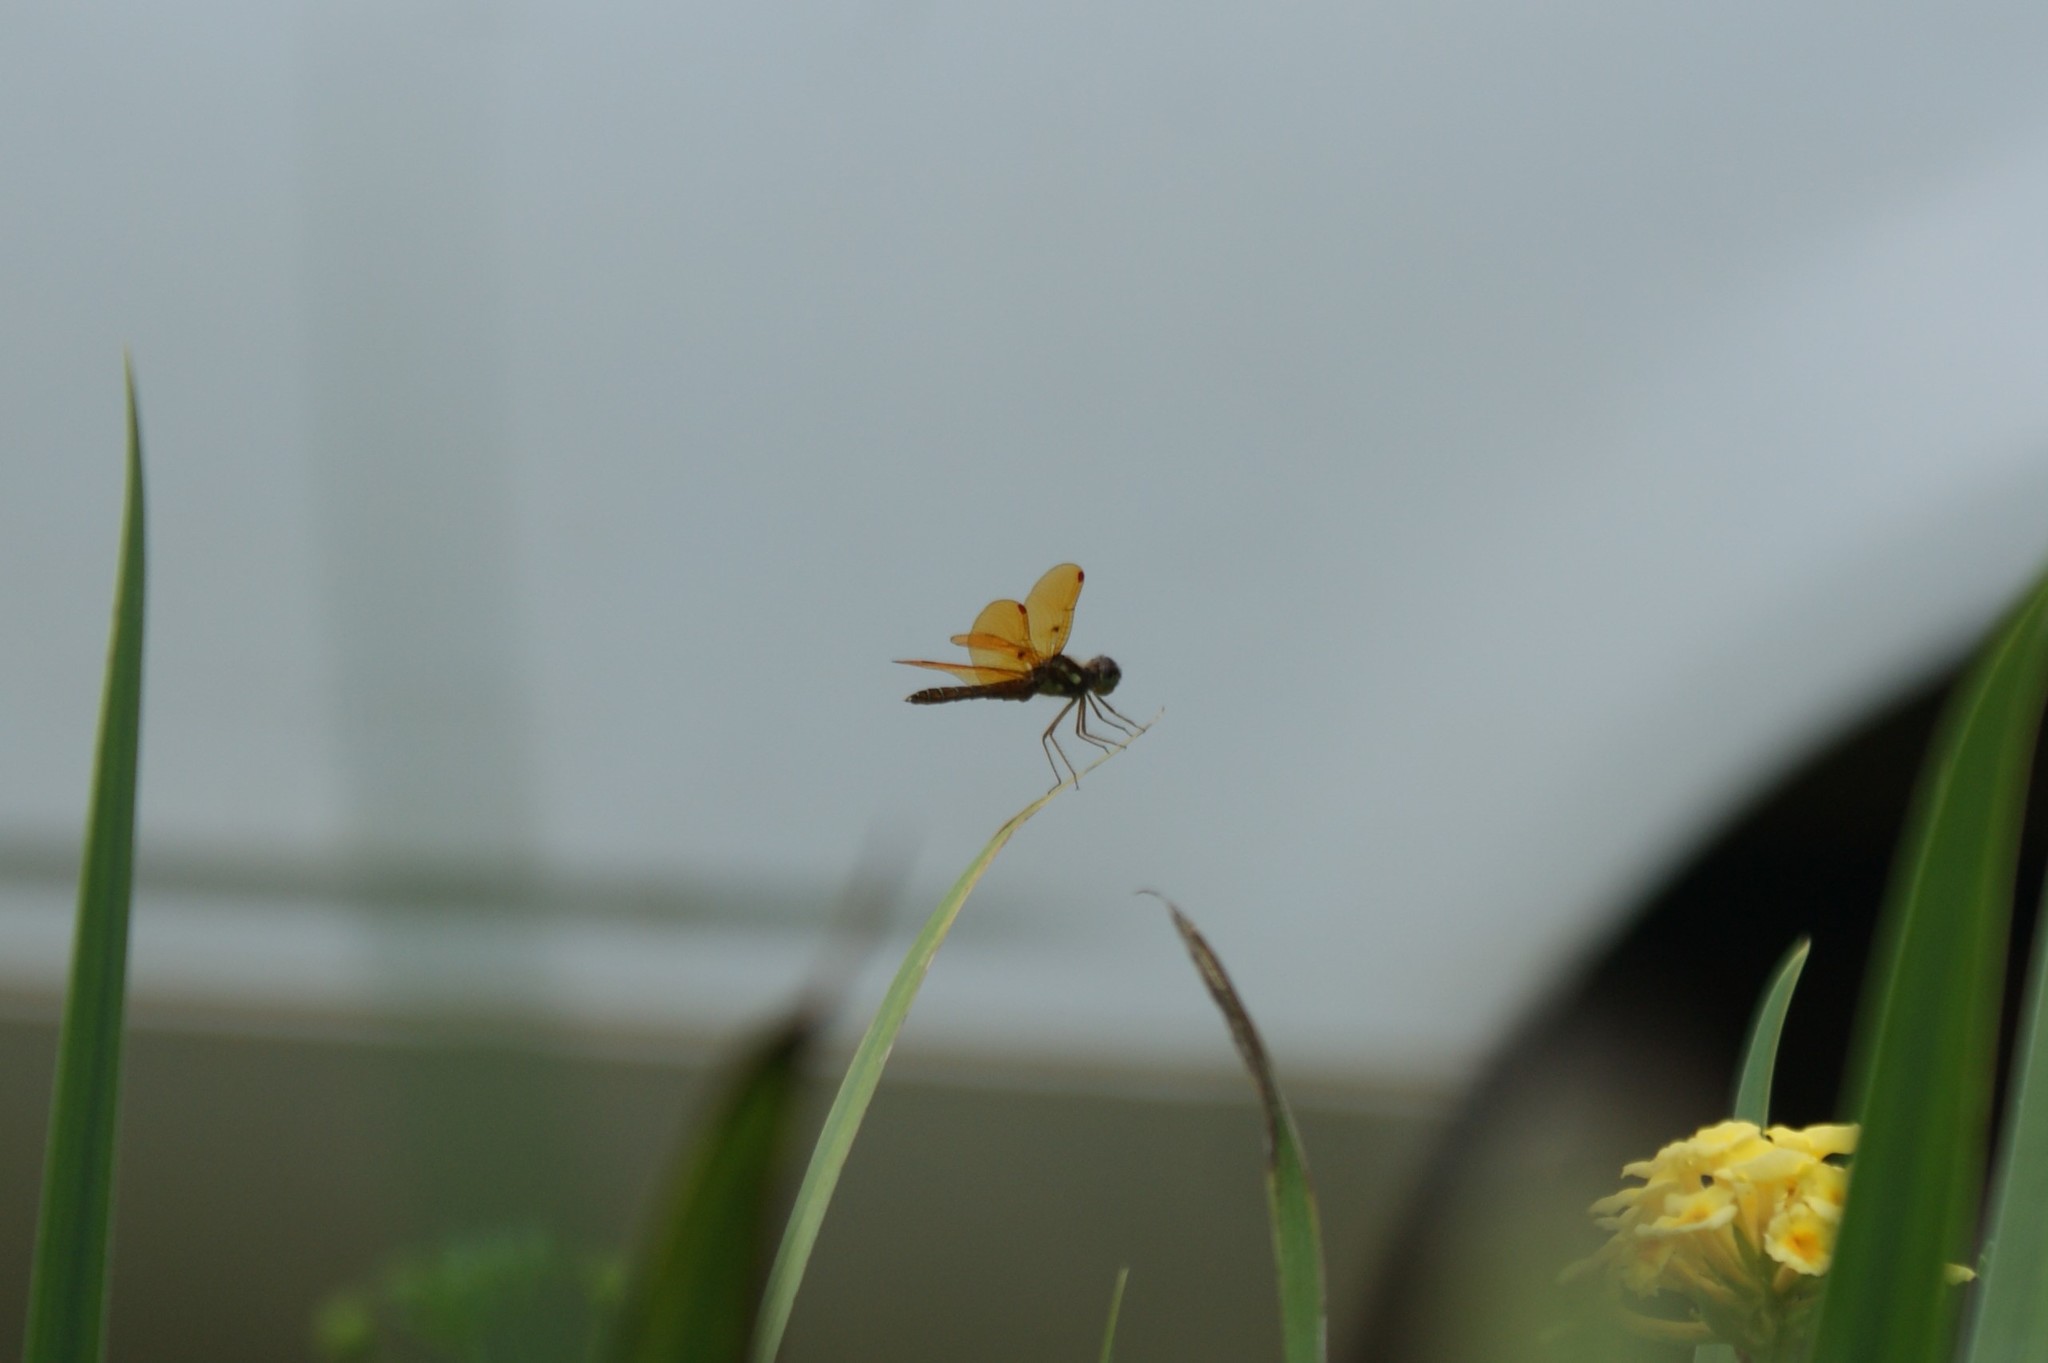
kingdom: Animalia
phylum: Arthropoda
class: Insecta
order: Odonata
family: Libellulidae
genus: Perithemis
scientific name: Perithemis tenera
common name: Eastern amberwing
